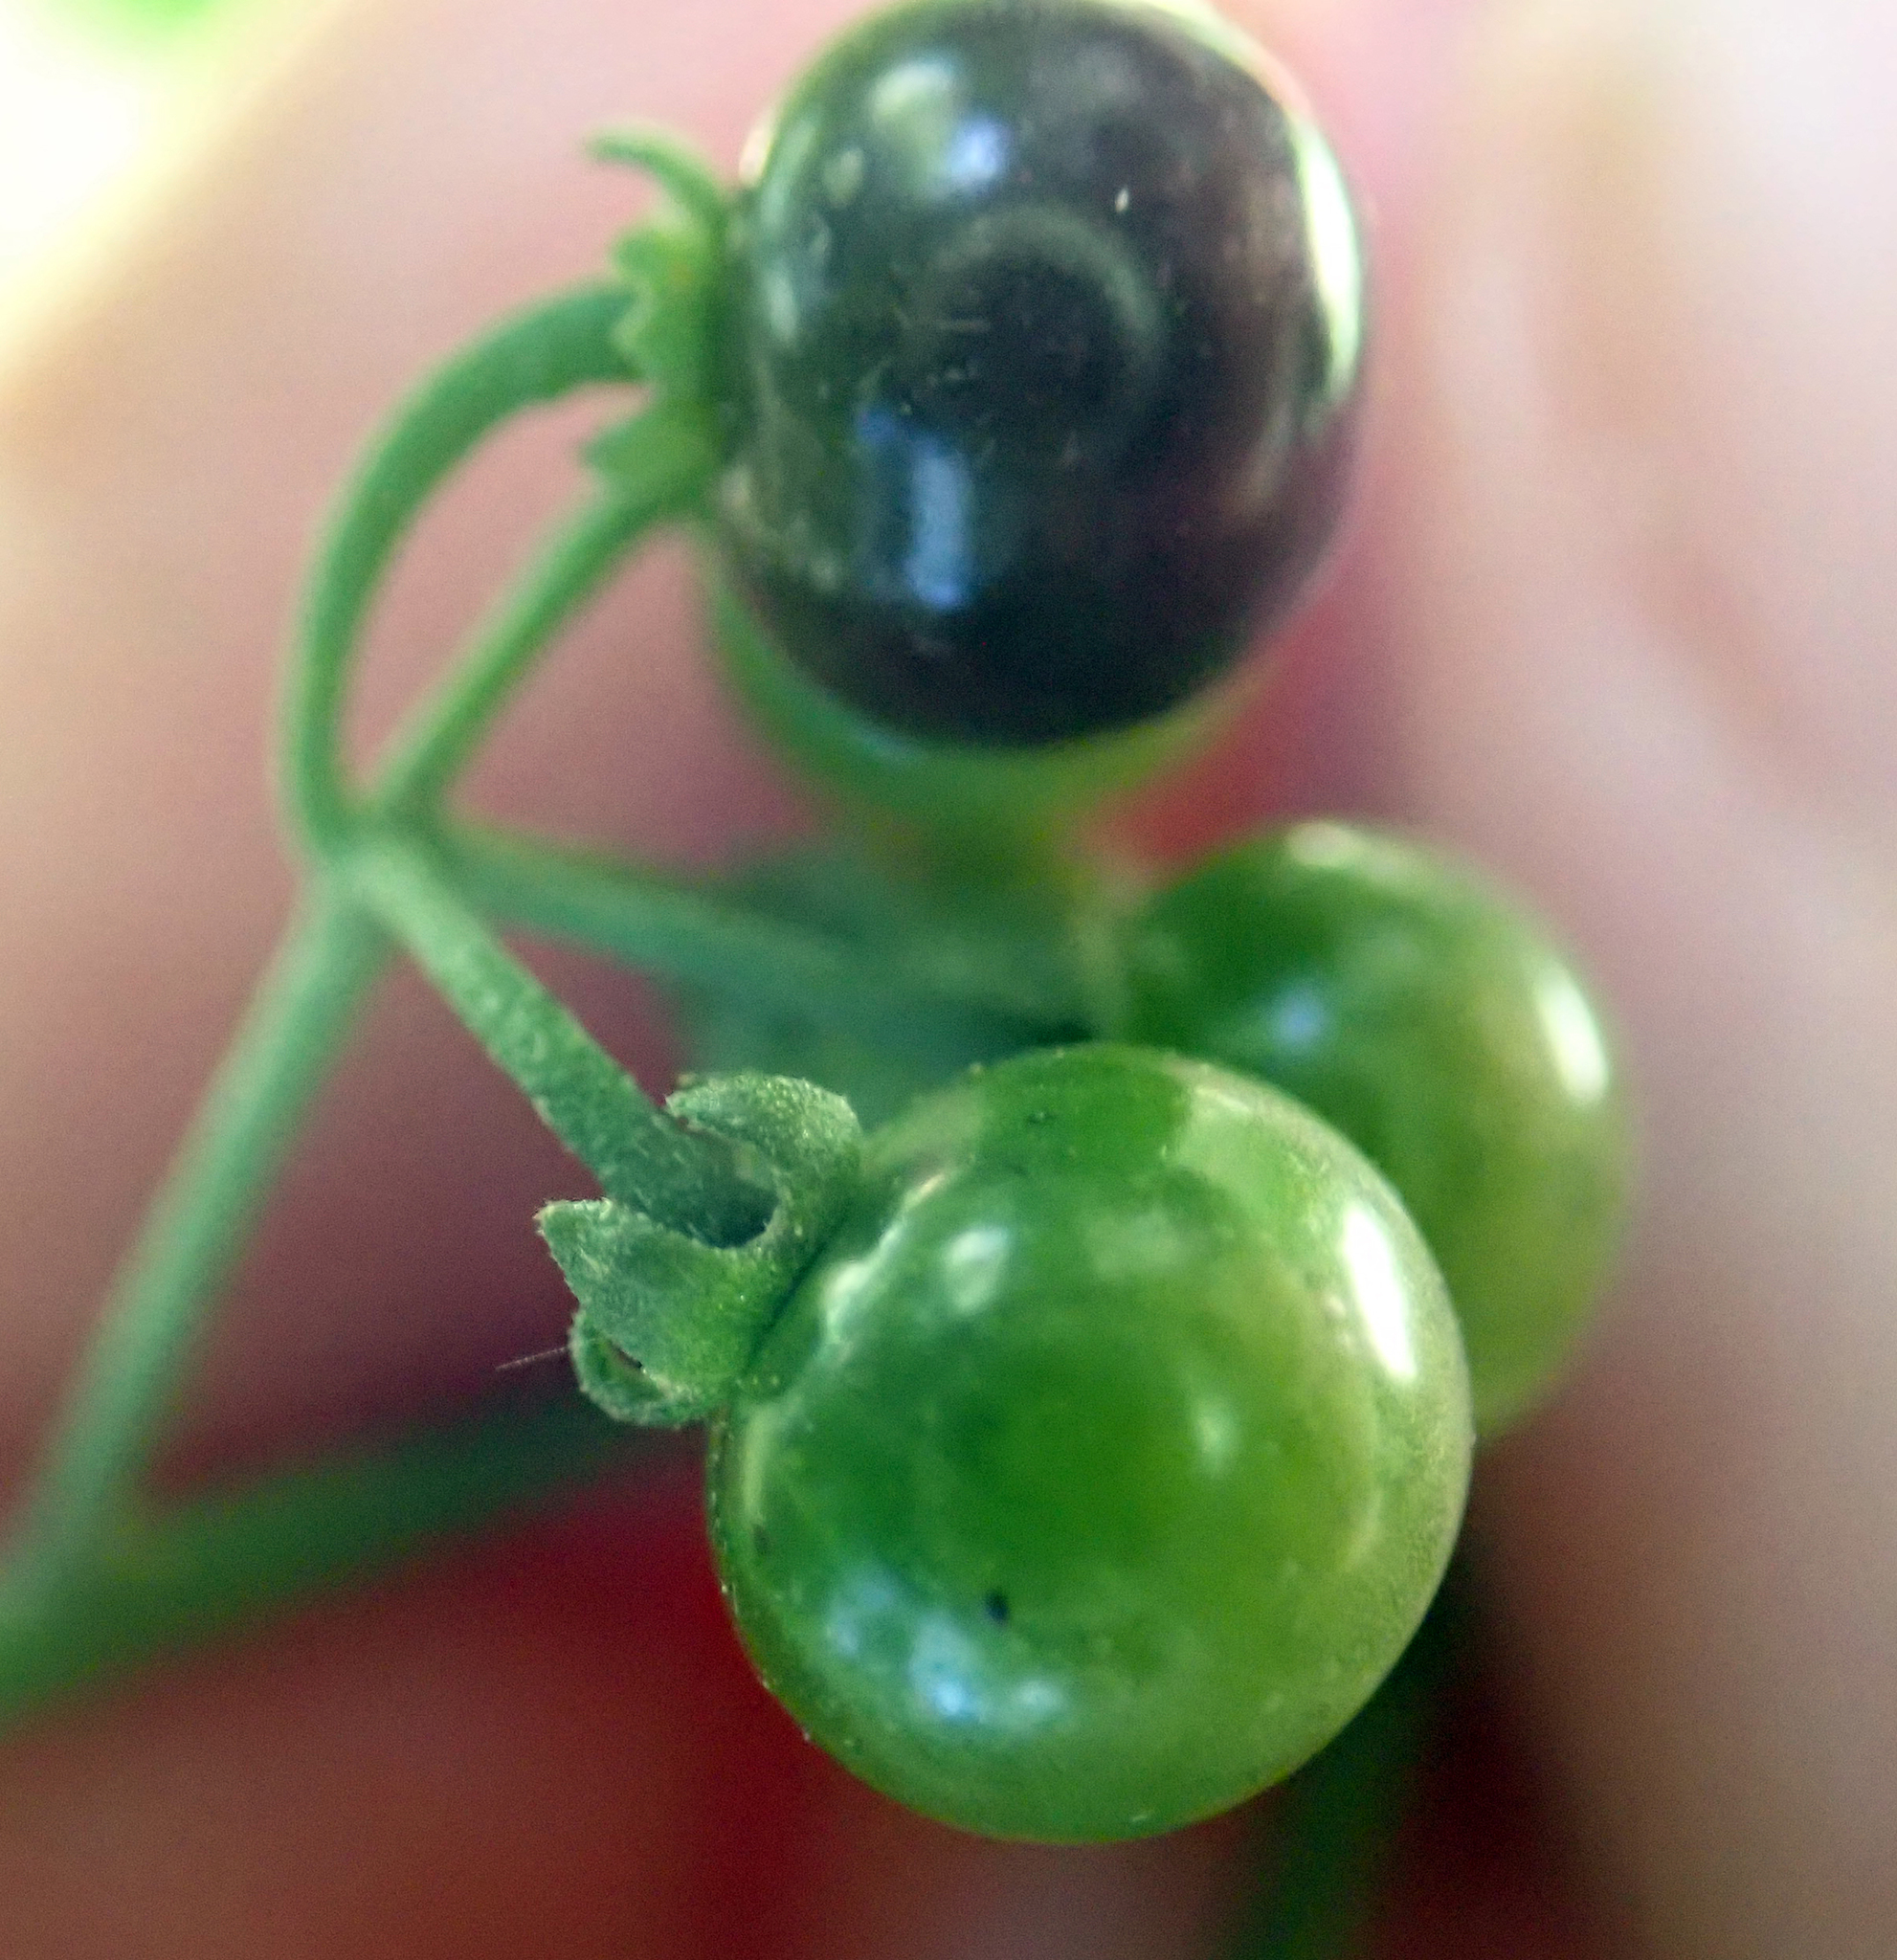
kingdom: Plantae
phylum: Tracheophyta
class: Magnoliopsida
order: Solanales
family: Solanaceae
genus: Solanum
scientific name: Solanum americanum
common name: American black nightshade
